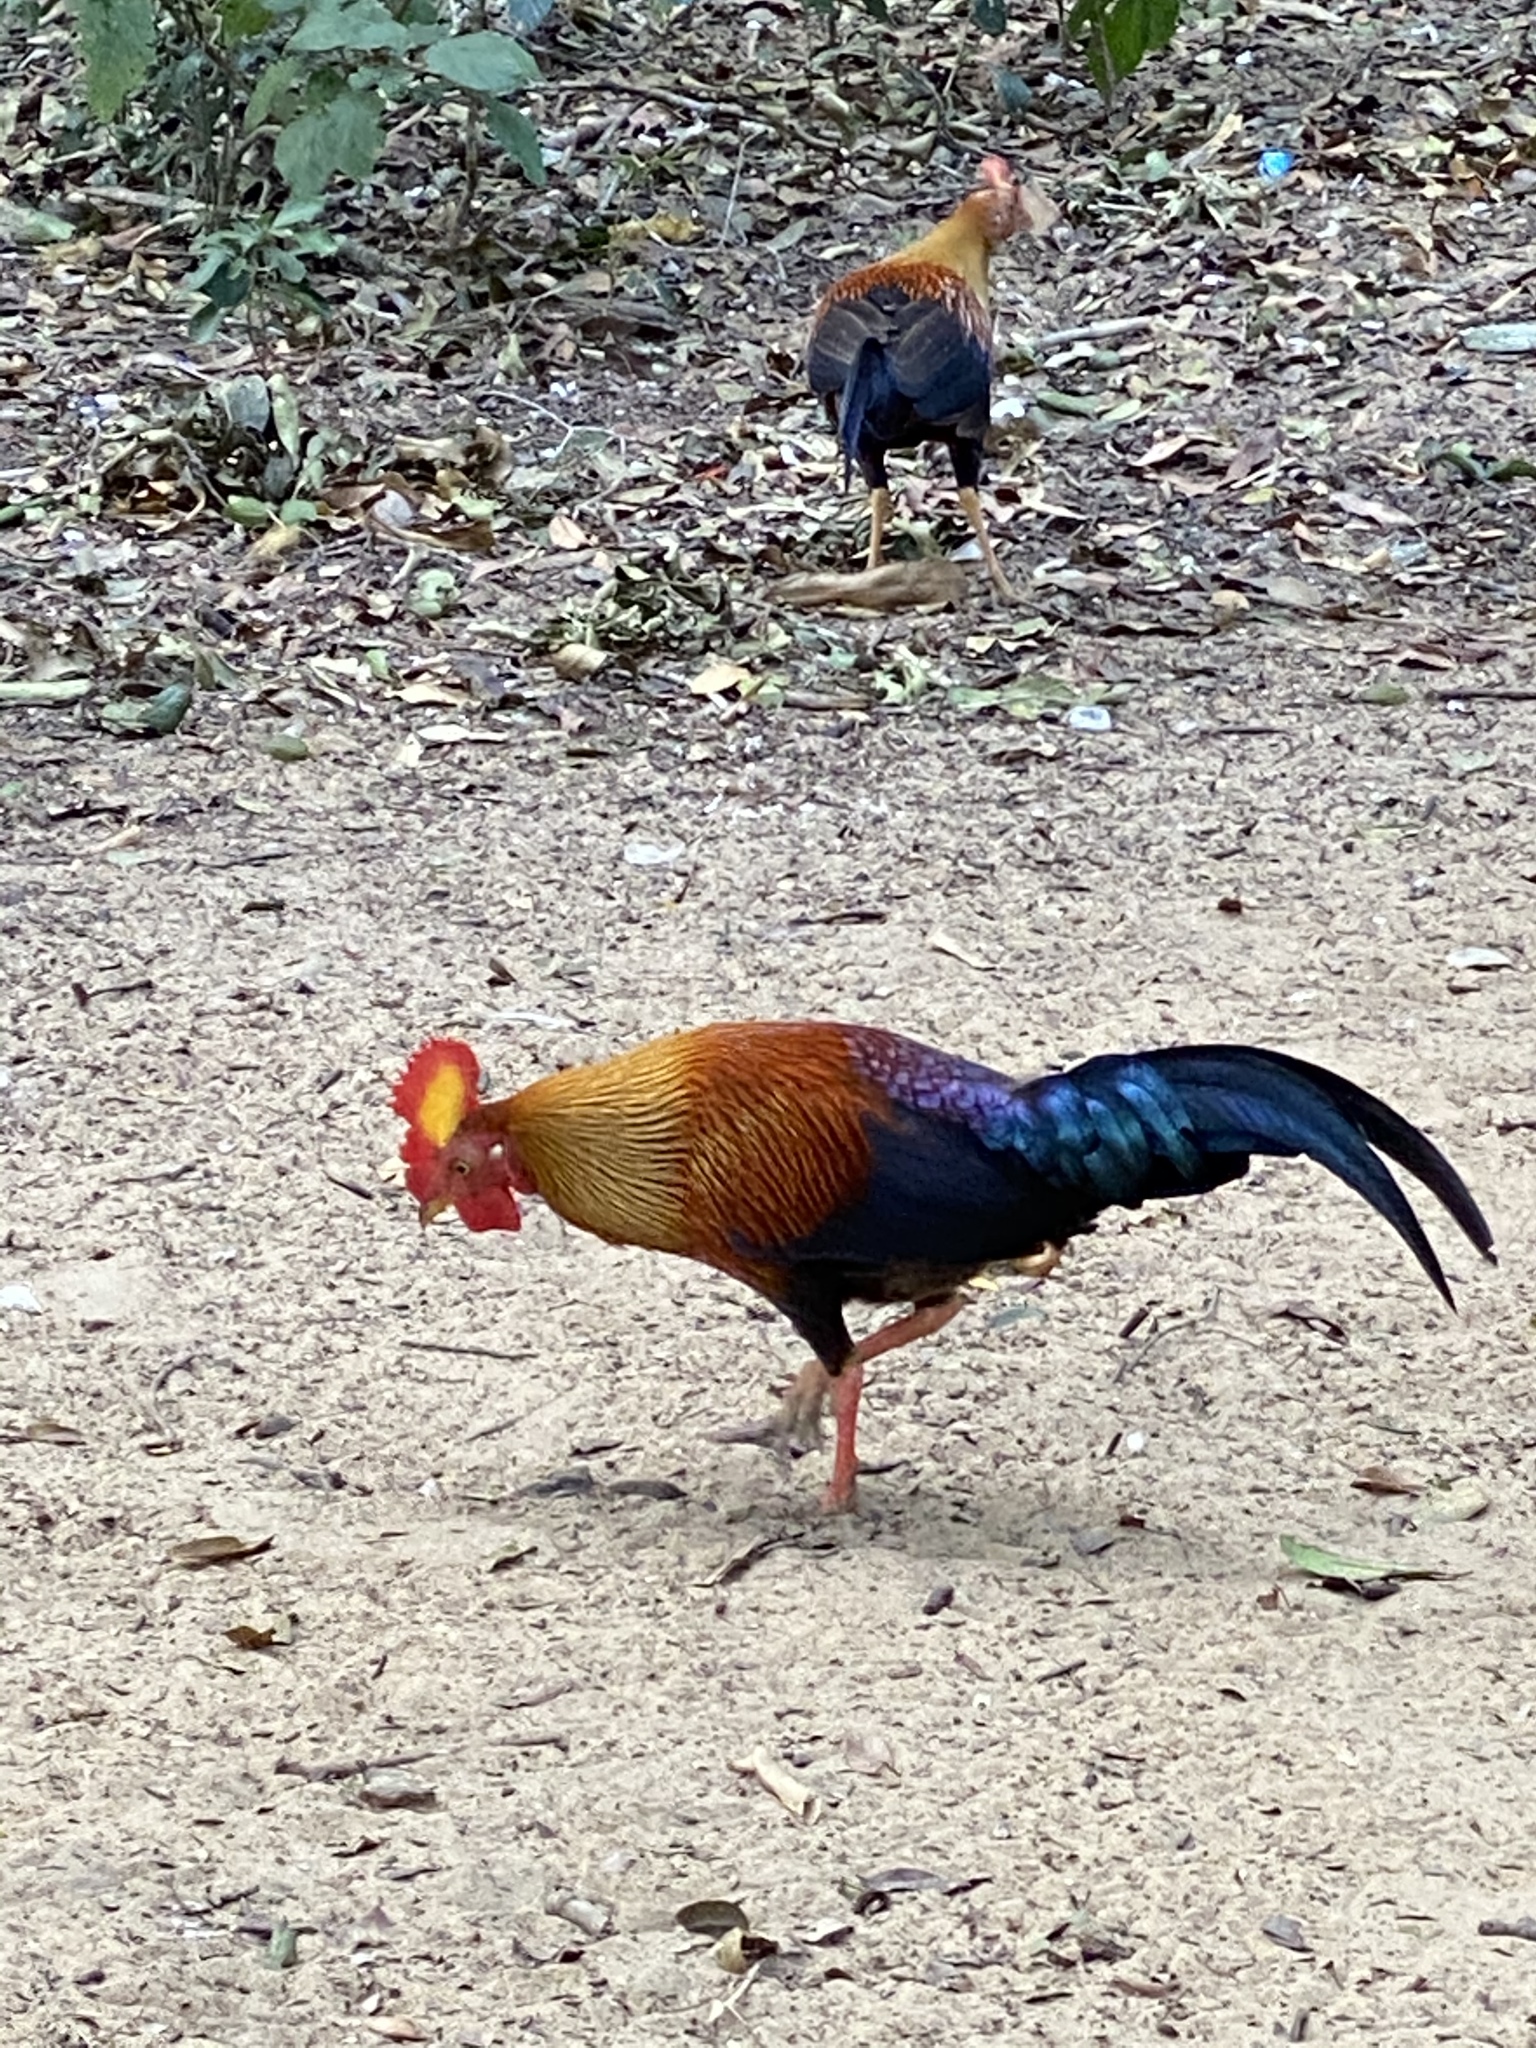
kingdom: Animalia
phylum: Chordata
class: Aves
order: Galliformes
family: Phasianidae
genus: Gallus
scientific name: Gallus lafayettii
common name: Sri lanka junglefowl
